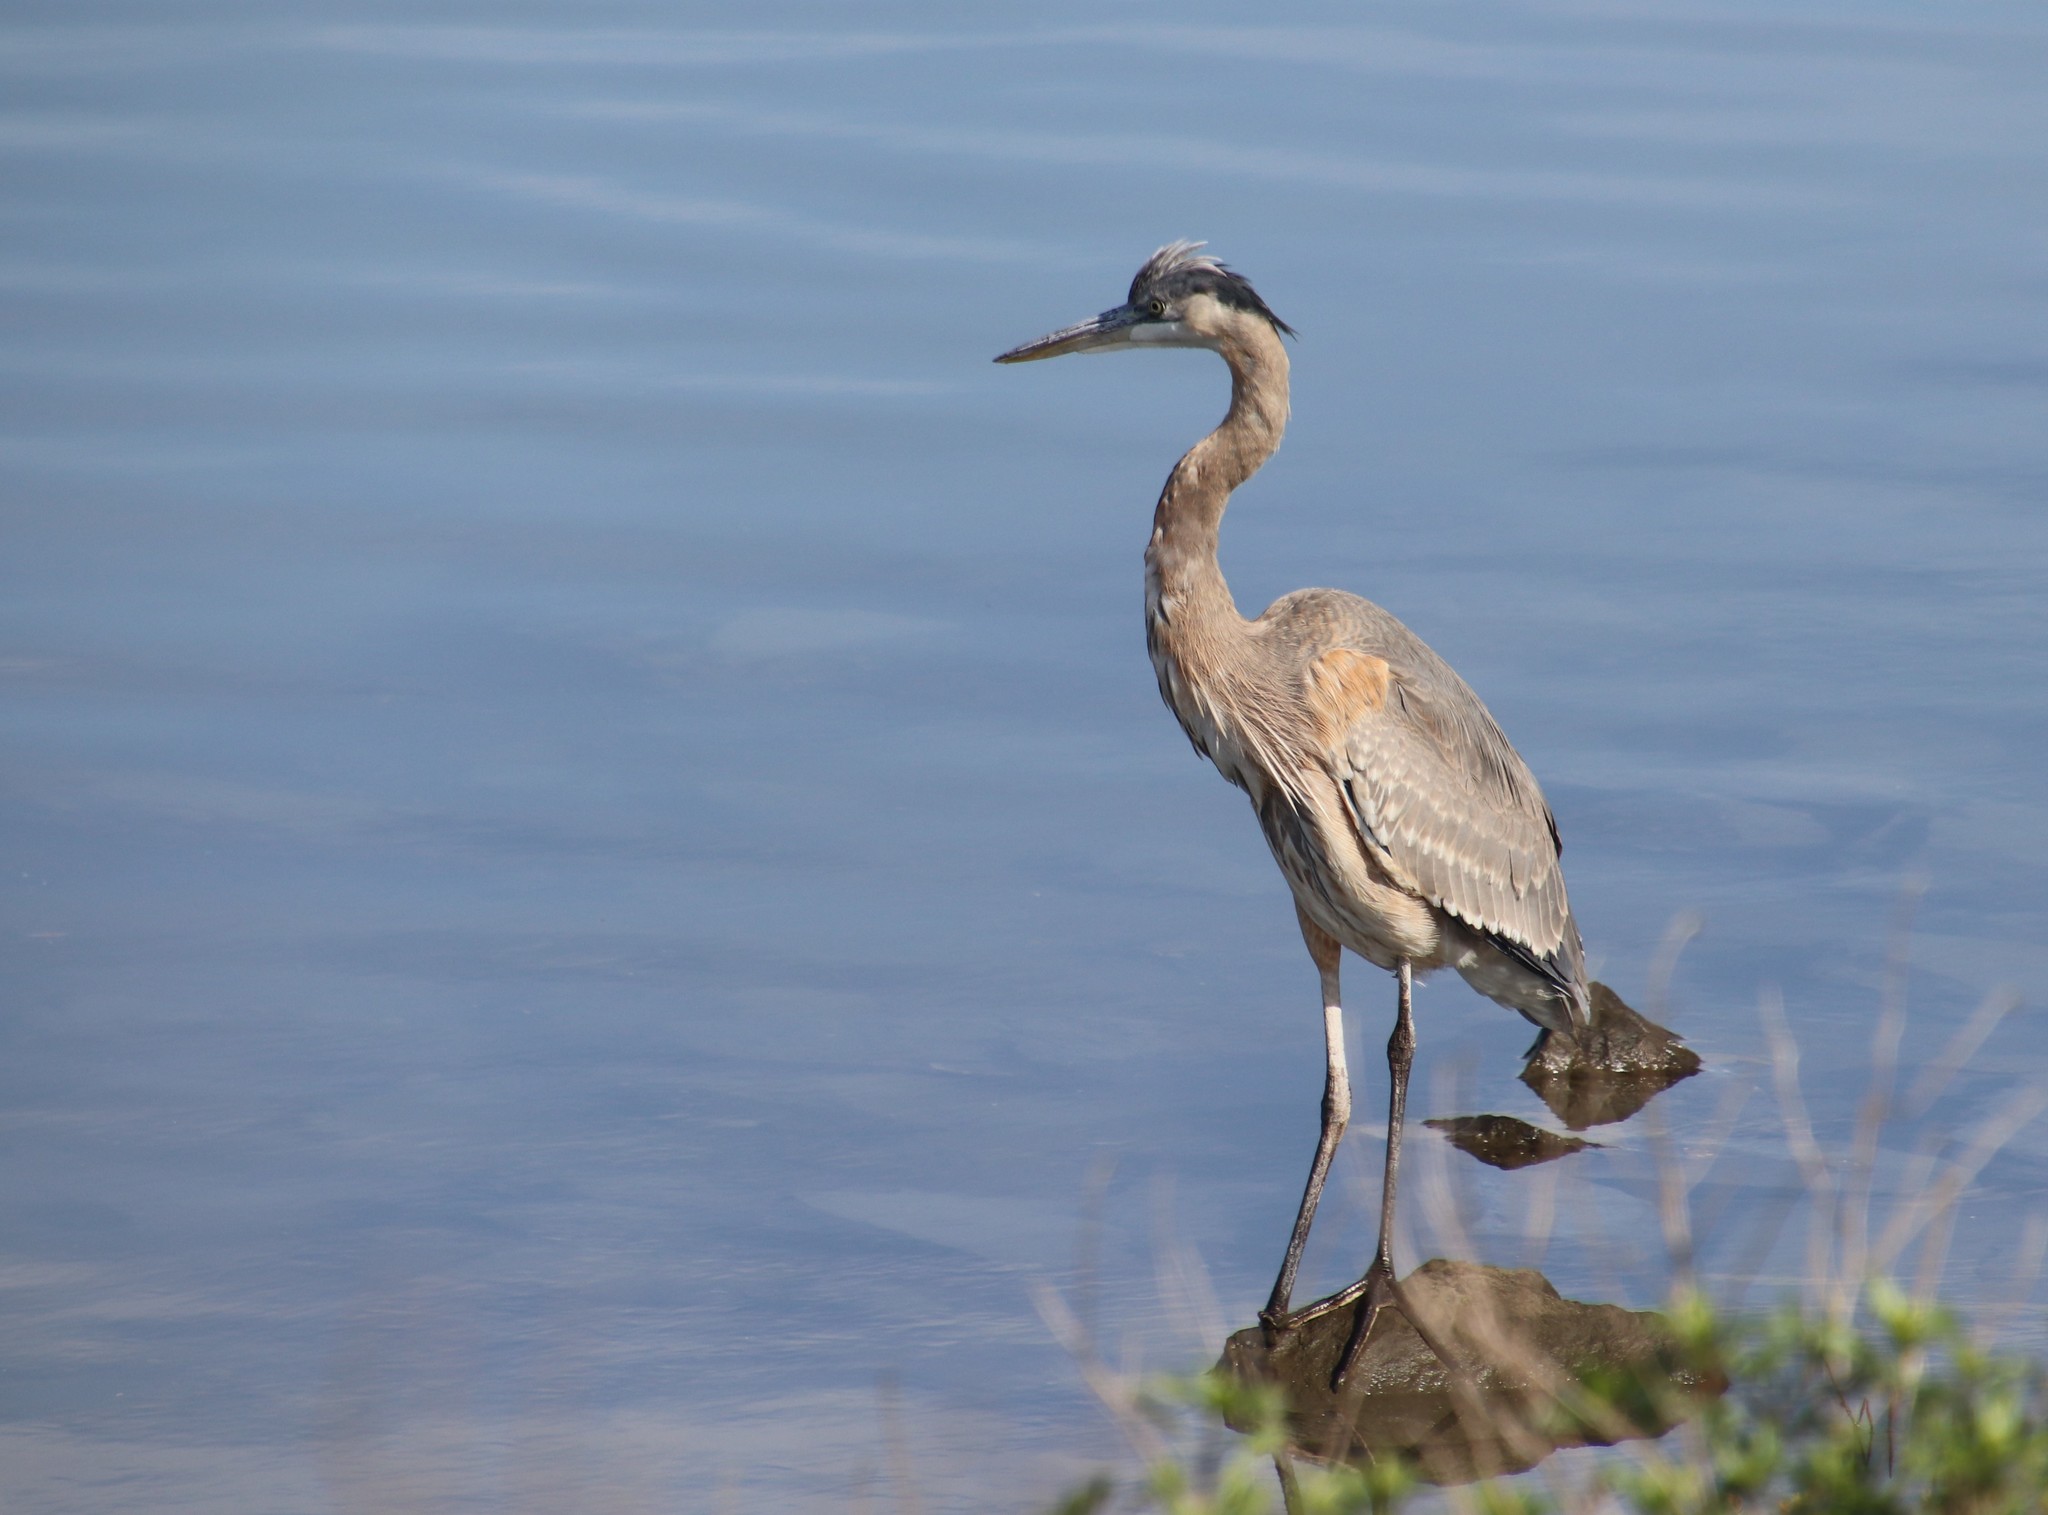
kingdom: Animalia
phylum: Chordata
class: Aves
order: Pelecaniformes
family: Ardeidae
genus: Ardea
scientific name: Ardea herodias
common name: Great blue heron
